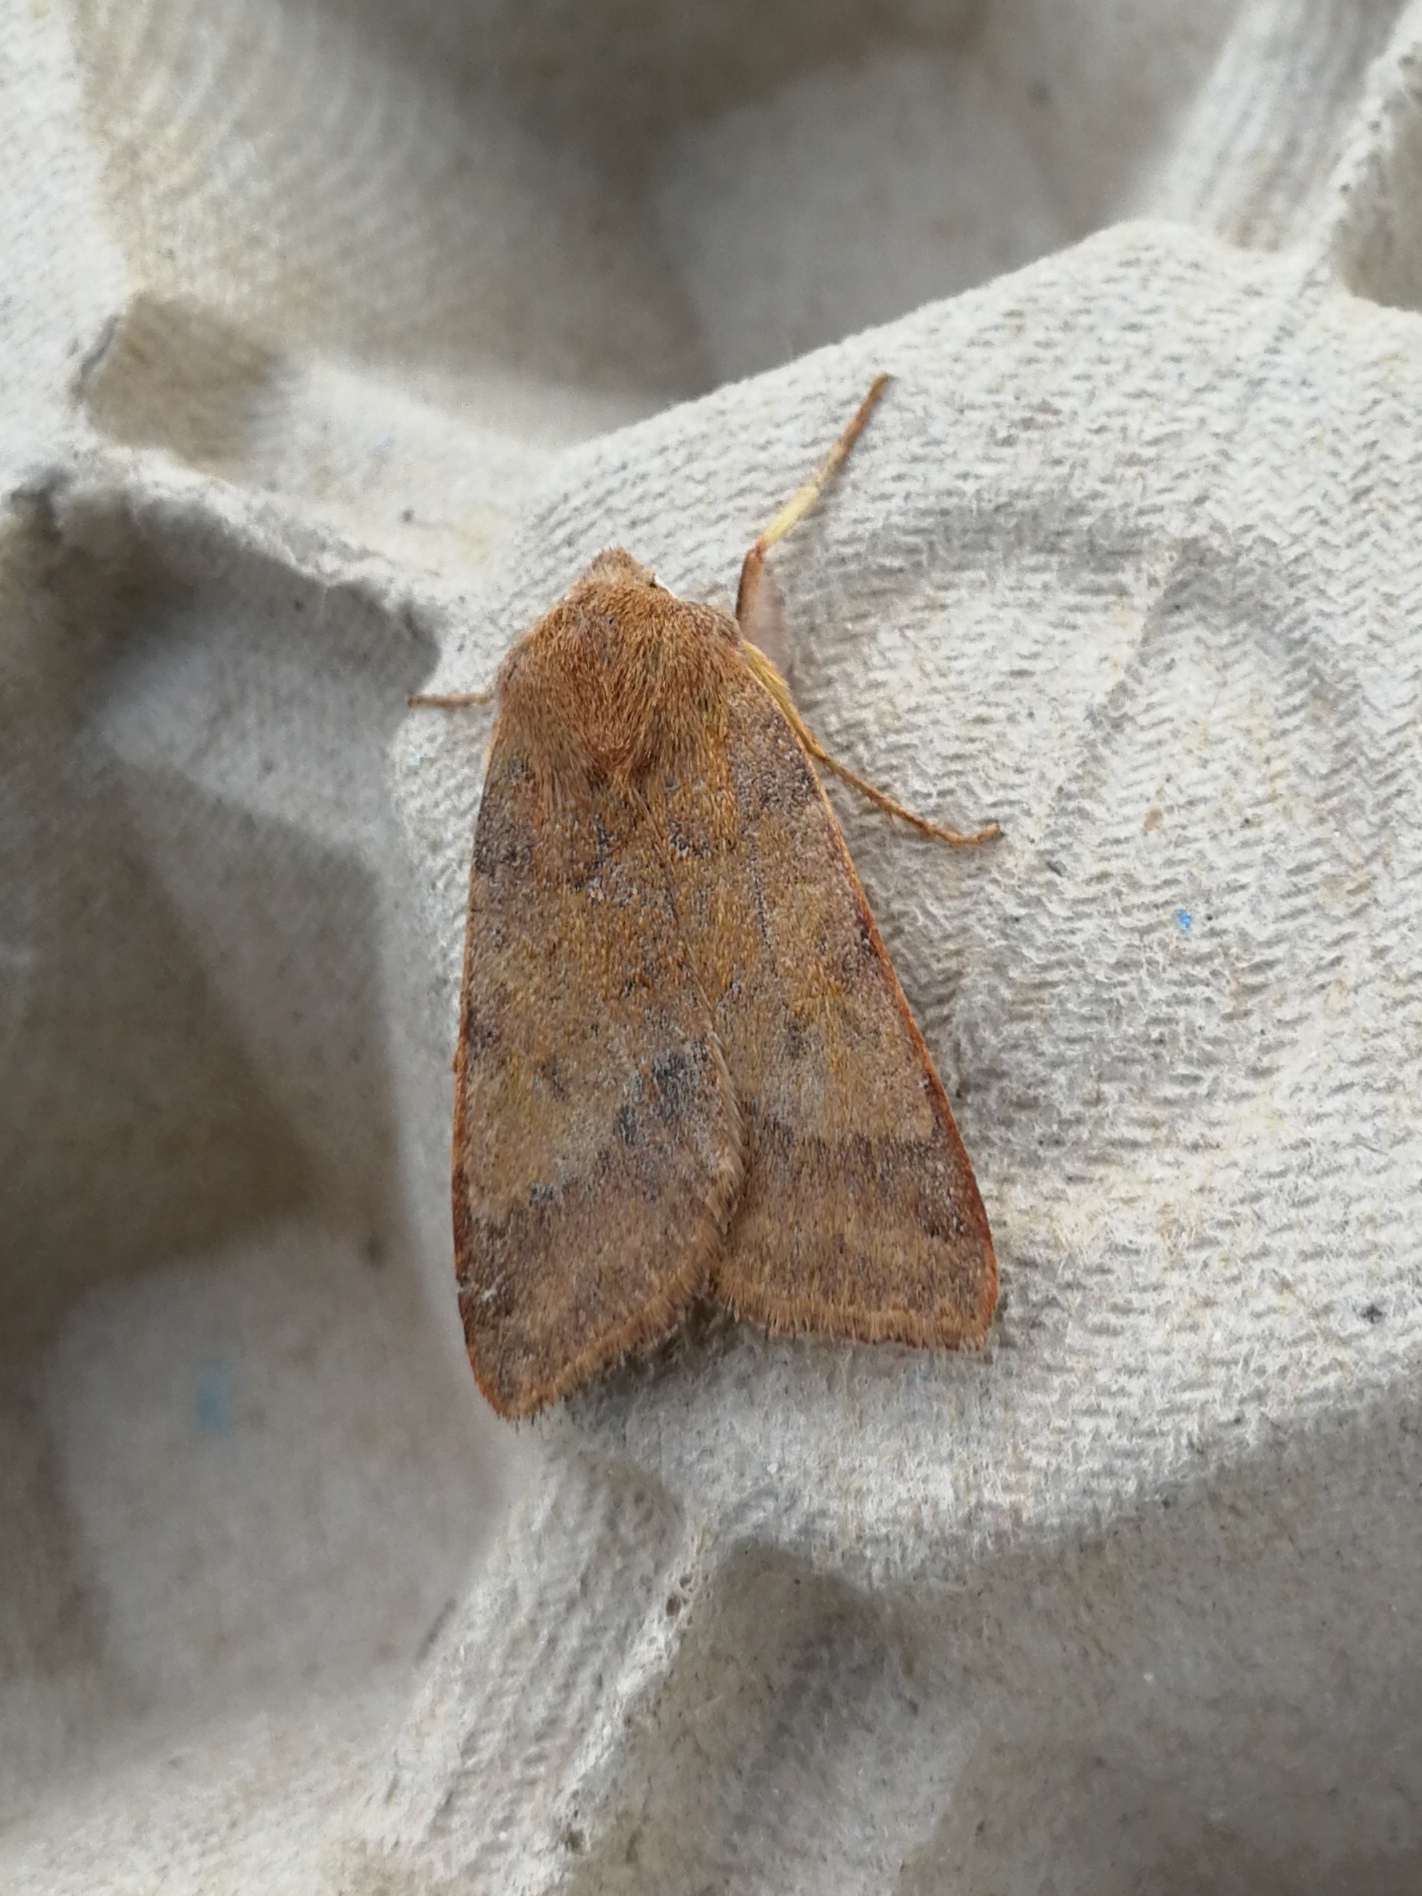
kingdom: Animalia
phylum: Arthropoda
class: Insecta
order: Lepidoptera
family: Noctuidae
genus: Agrochola
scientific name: Agrochola helvola
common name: Flounced chestnut
